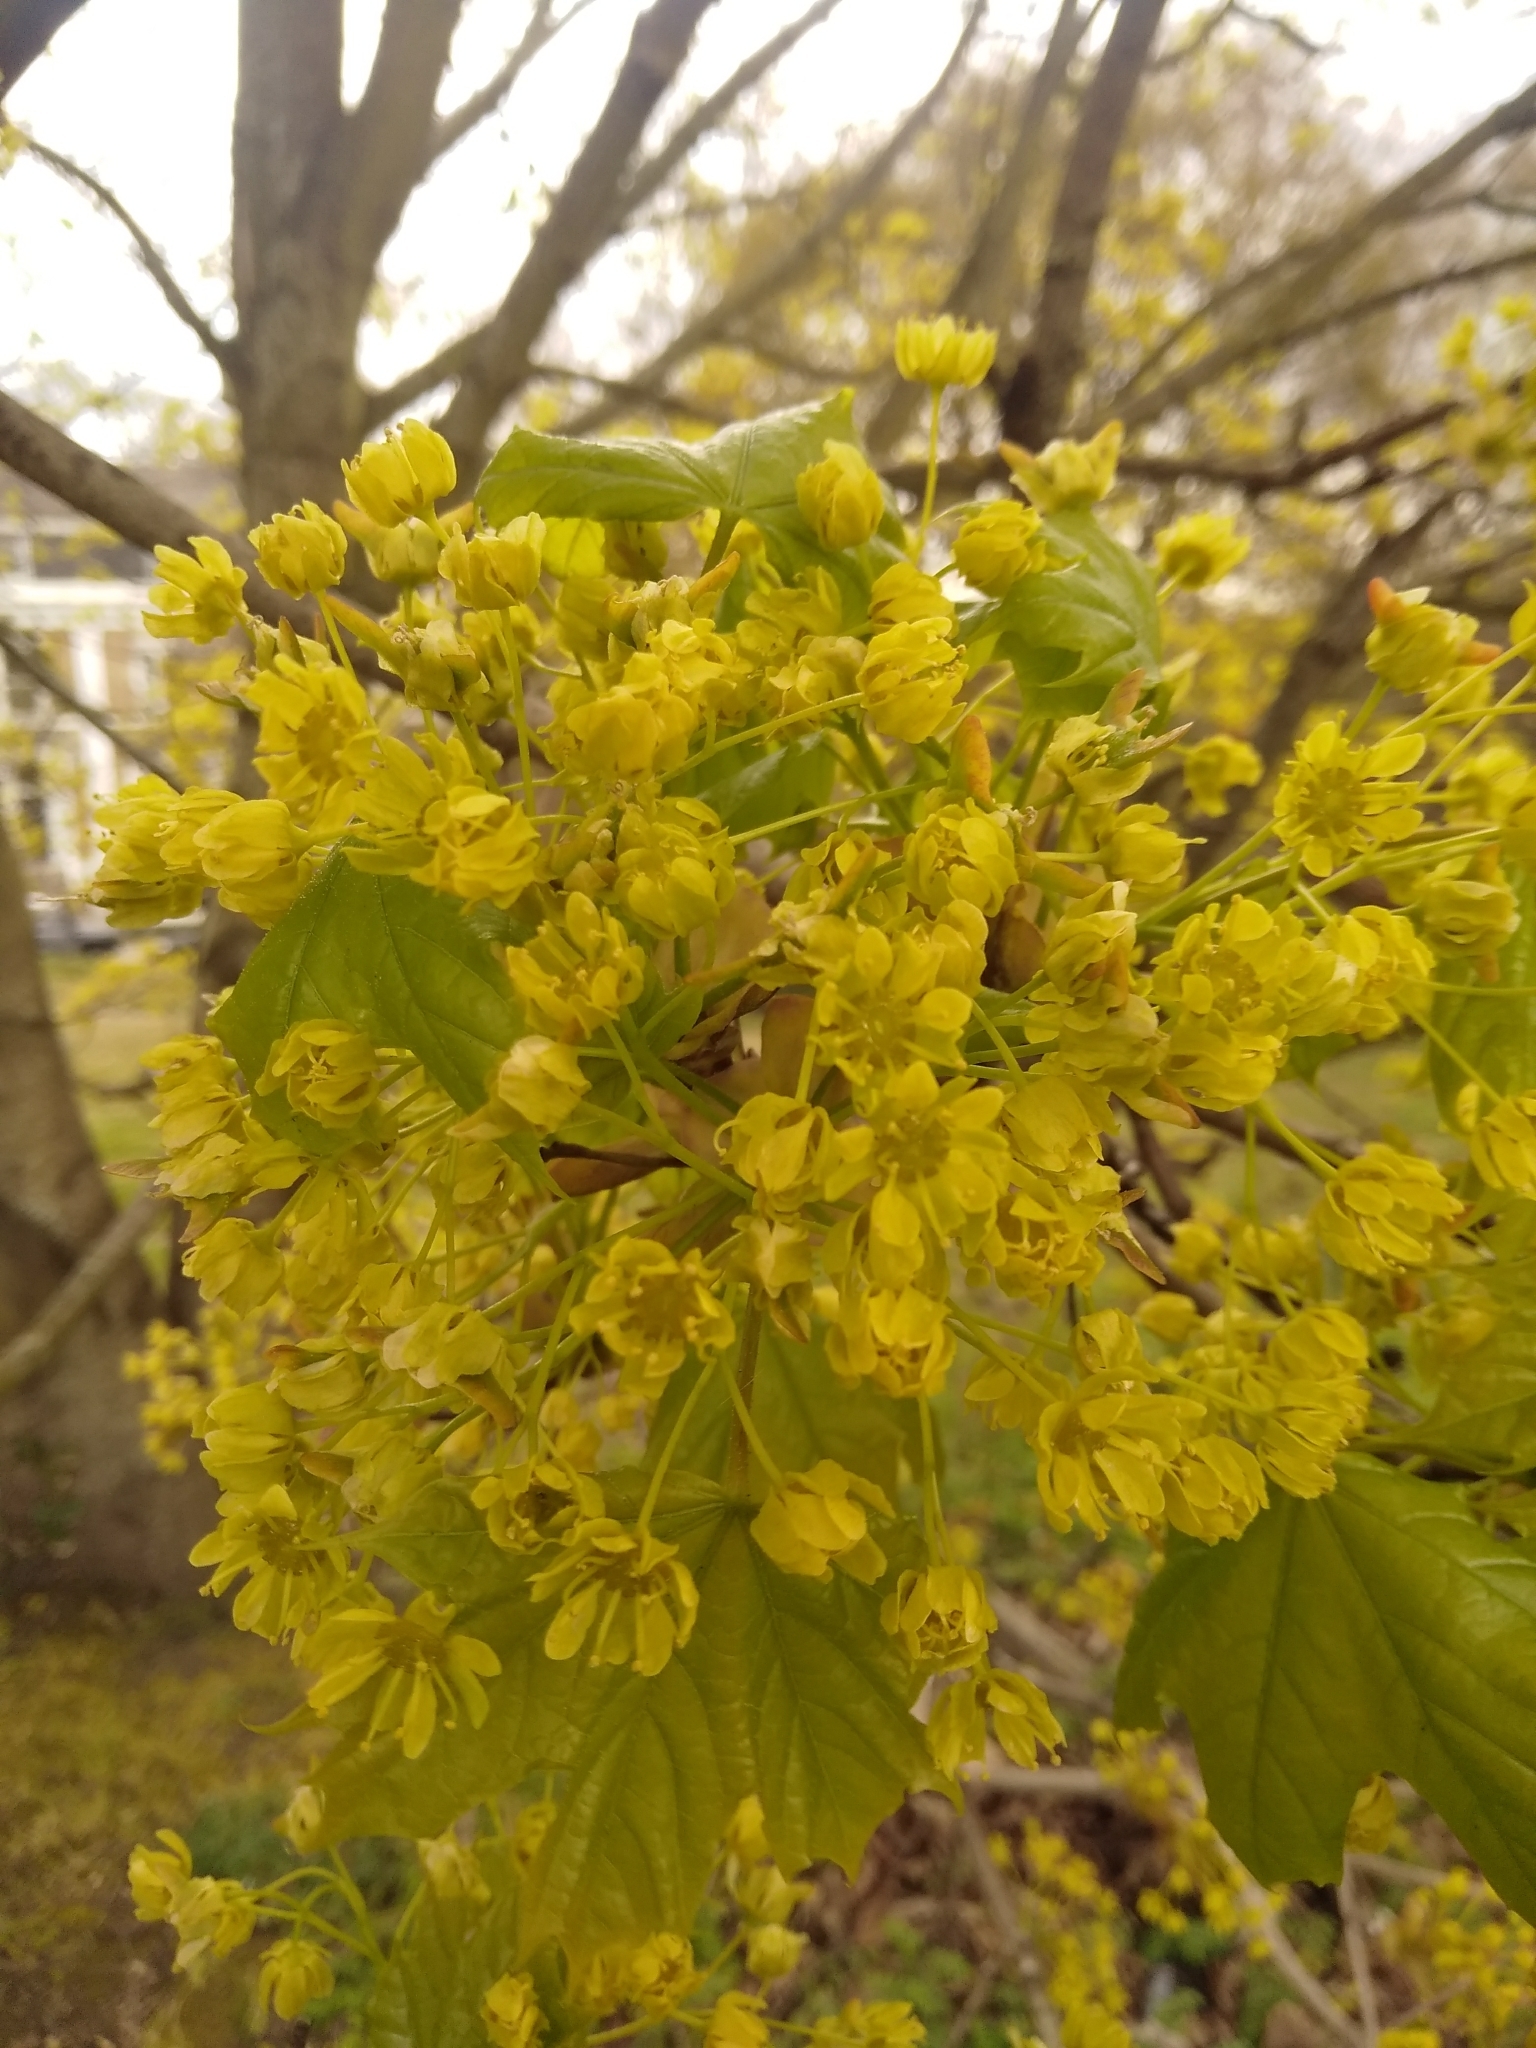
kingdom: Plantae
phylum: Tracheophyta
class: Magnoliopsida
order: Sapindales
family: Sapindaceae
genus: Acer
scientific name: Acer platanoides
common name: Norway maple
